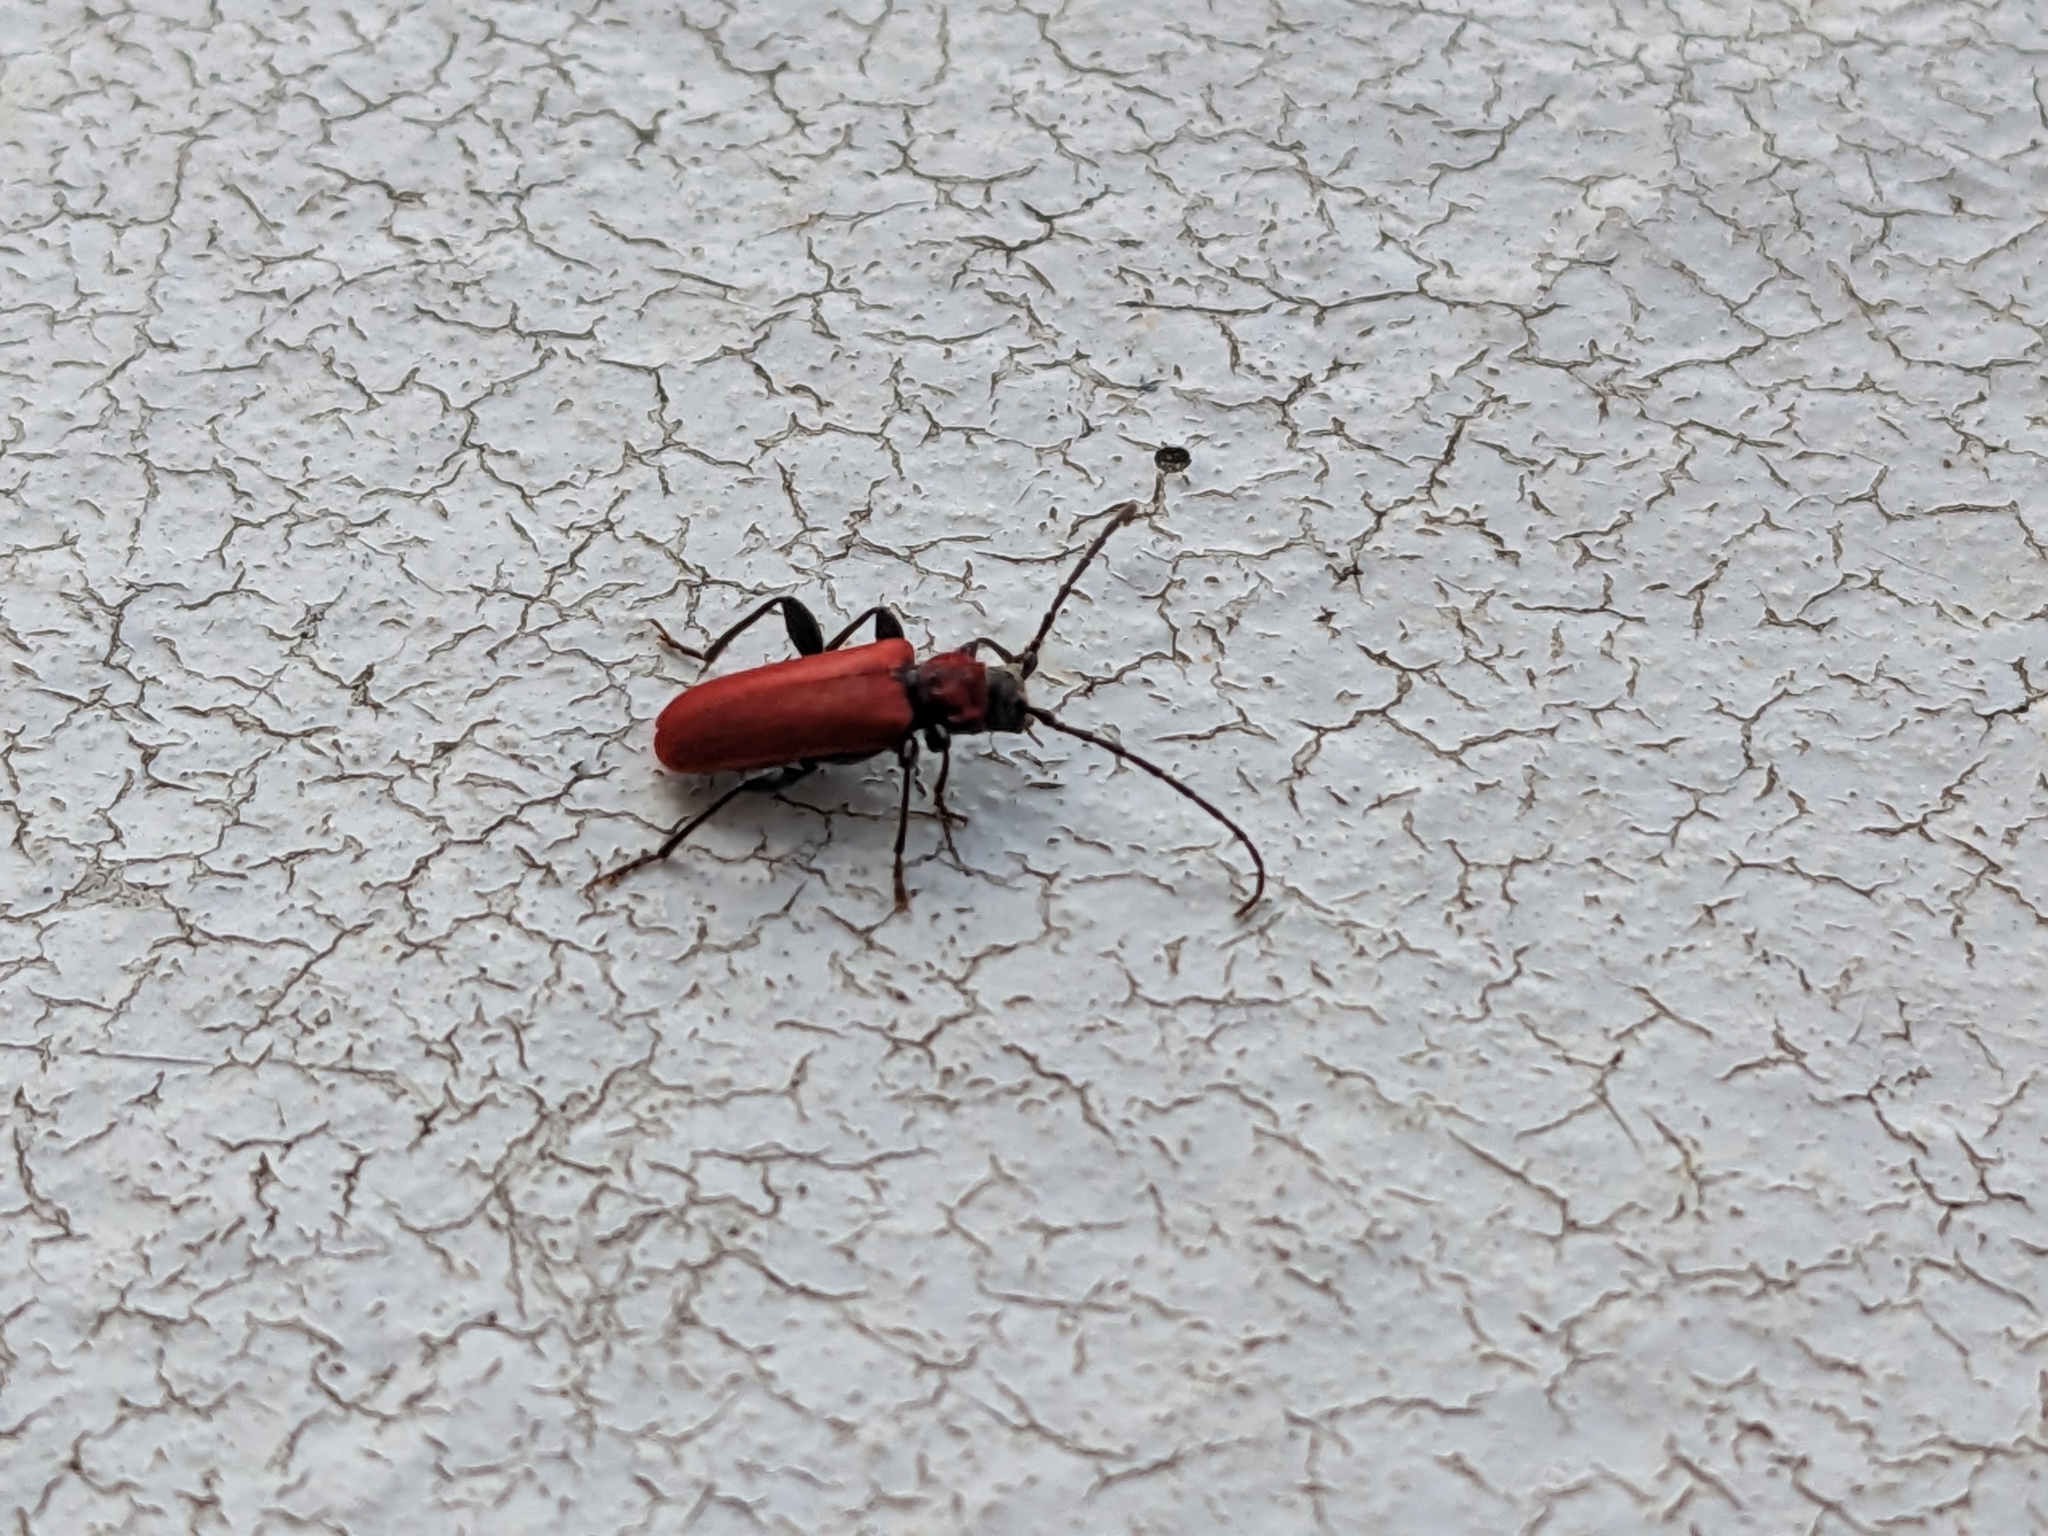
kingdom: Animalia
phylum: Arthropoda
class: Insecta
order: Coleoptera
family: Cerambycidae
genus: Pyrrhidium
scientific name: Pyrrhidium sanguineum
